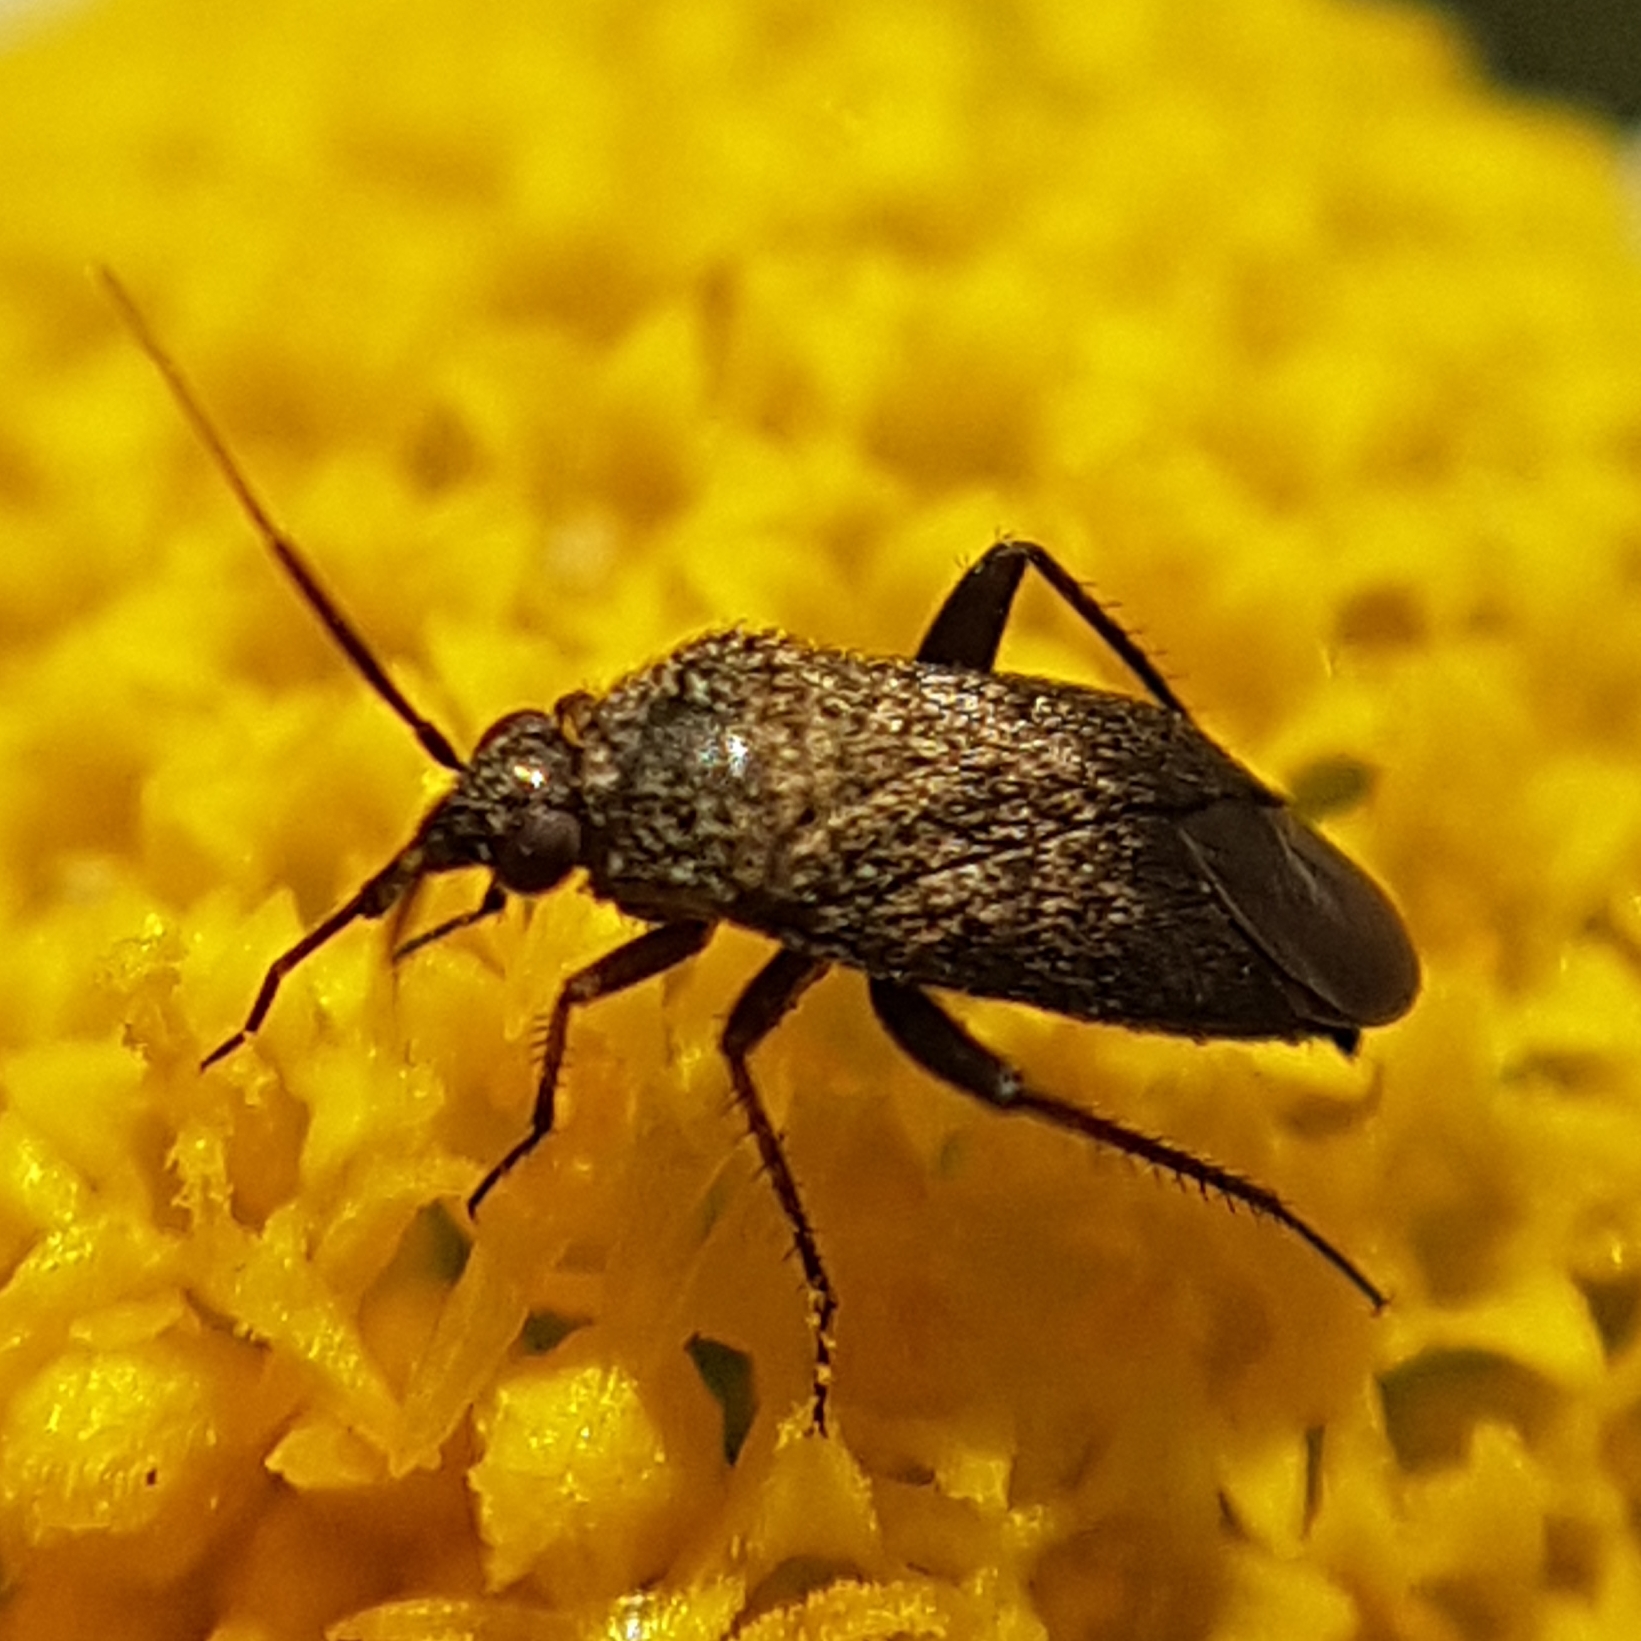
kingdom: Animalia
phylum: Arthropoda
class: Insecta
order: Hemiptera
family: Miridae
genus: Lepidargyrus
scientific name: Lepidargyrus ancorifer
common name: Plant bug
